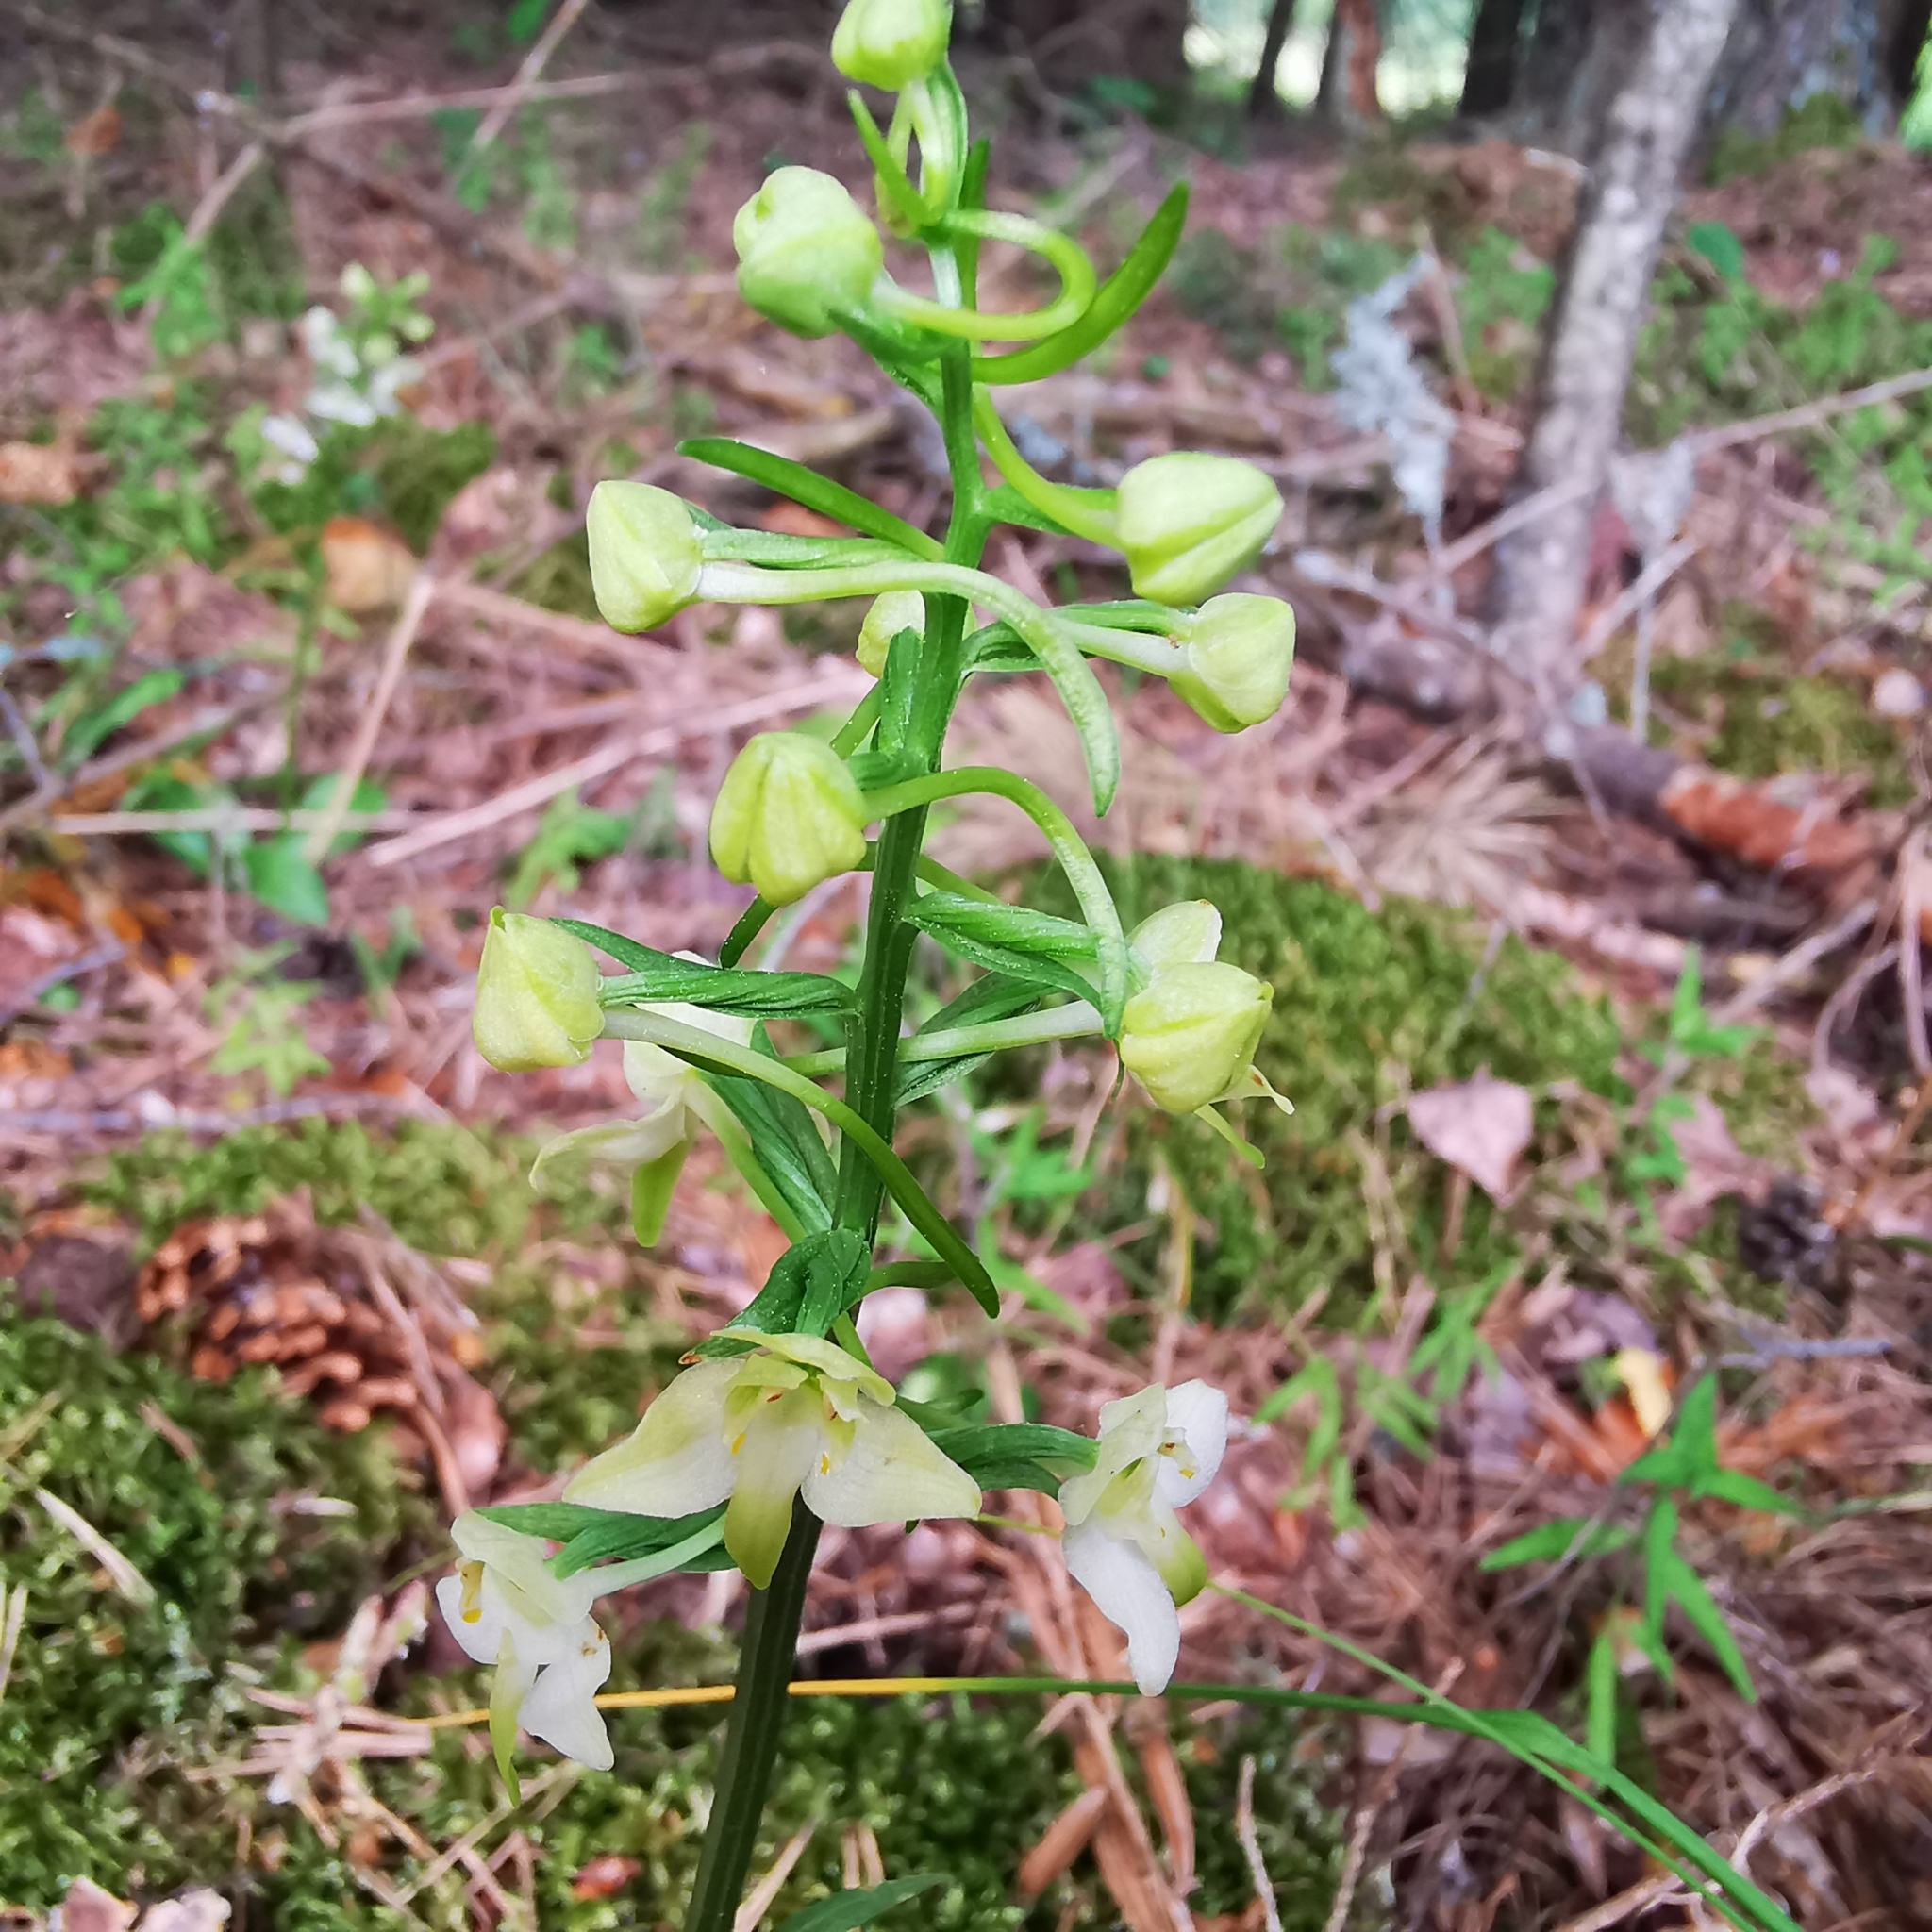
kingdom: Plantae
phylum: Tracheophyta
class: Liliopsida
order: Asparagales
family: Orchidaceae
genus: Platanthera
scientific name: Platanthera chlorantha
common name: Greater butterfly-orchid
